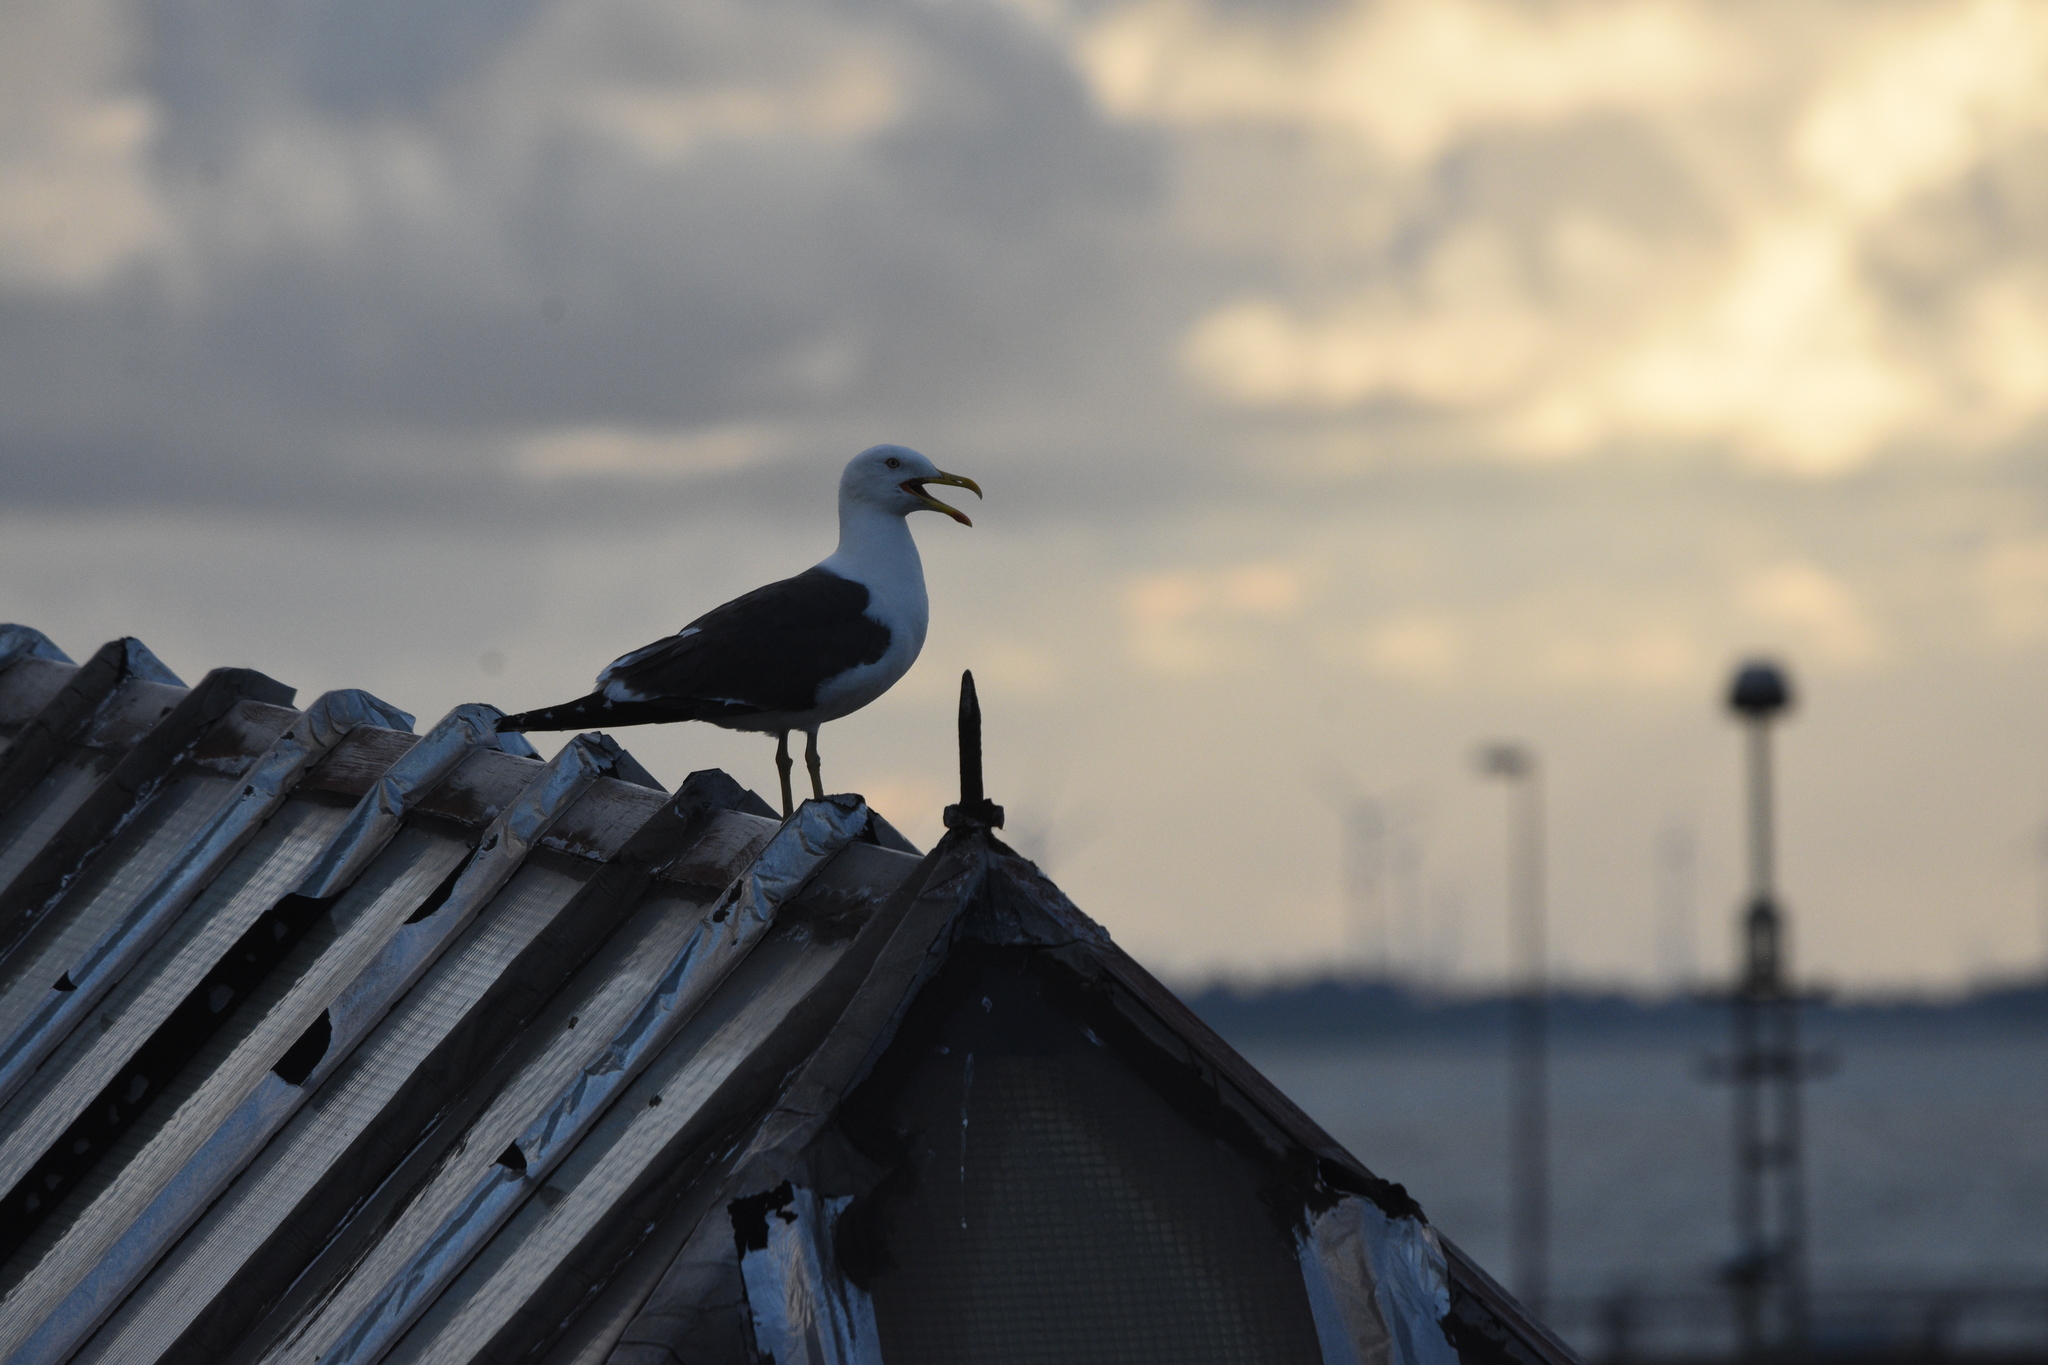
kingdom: Animalia
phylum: Chordata
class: Aves
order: Charadriiformes
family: Laridae
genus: Larus
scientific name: Larus fuscus
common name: Lesser black-backed gull
